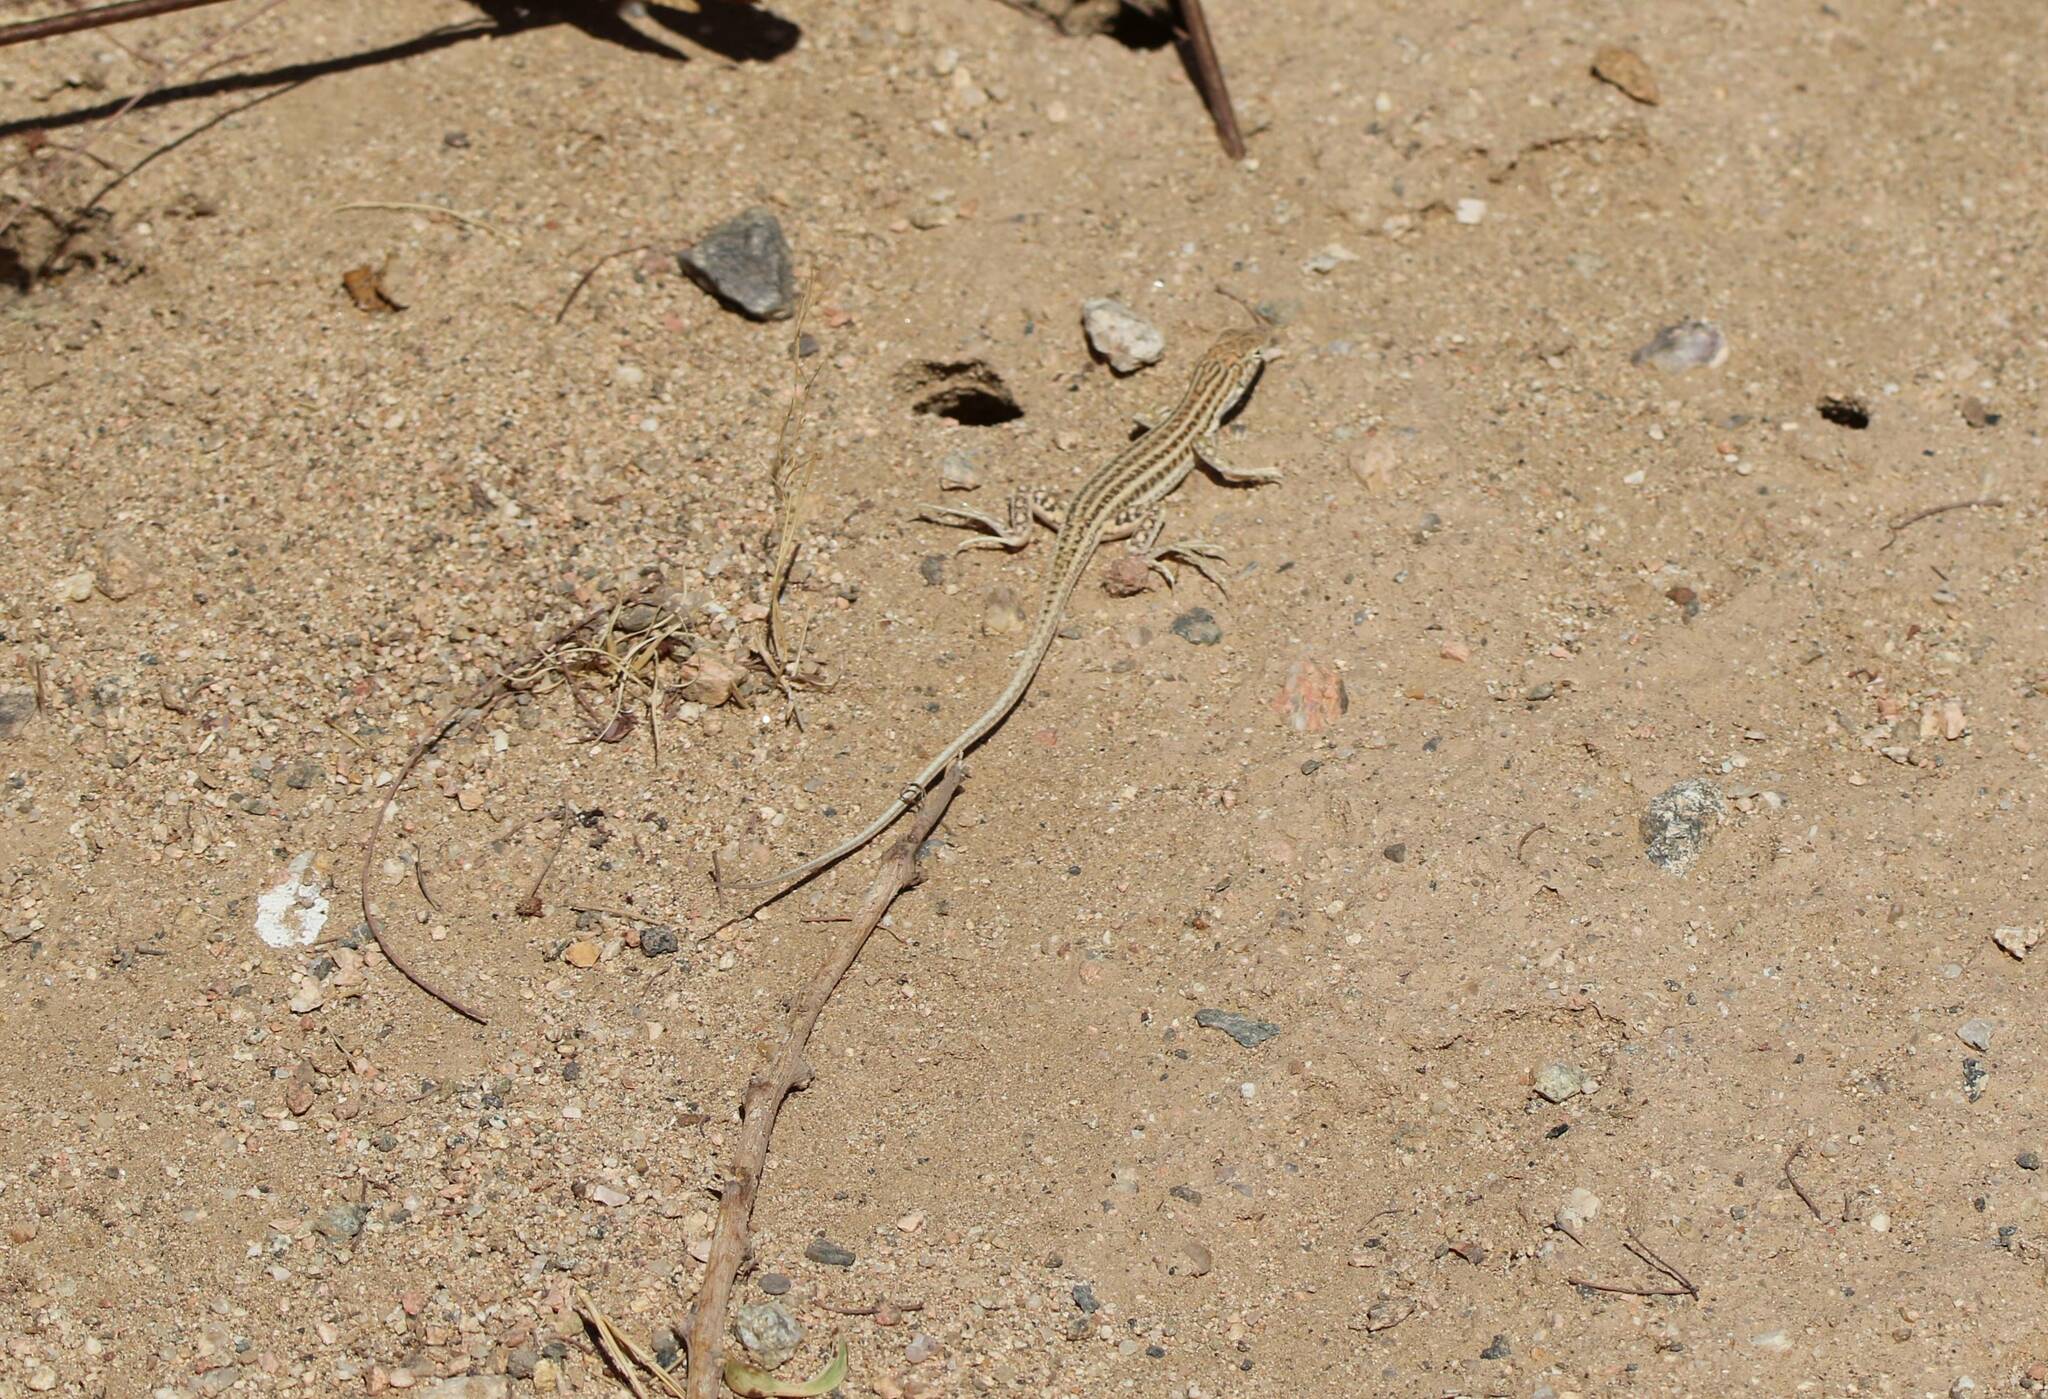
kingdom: Animalia
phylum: Chordata
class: Squamata
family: Lacertidae
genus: Acanthodactylus
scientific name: Acanthodactylus boskianus
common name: Bosc’s fringe-toed lizard
